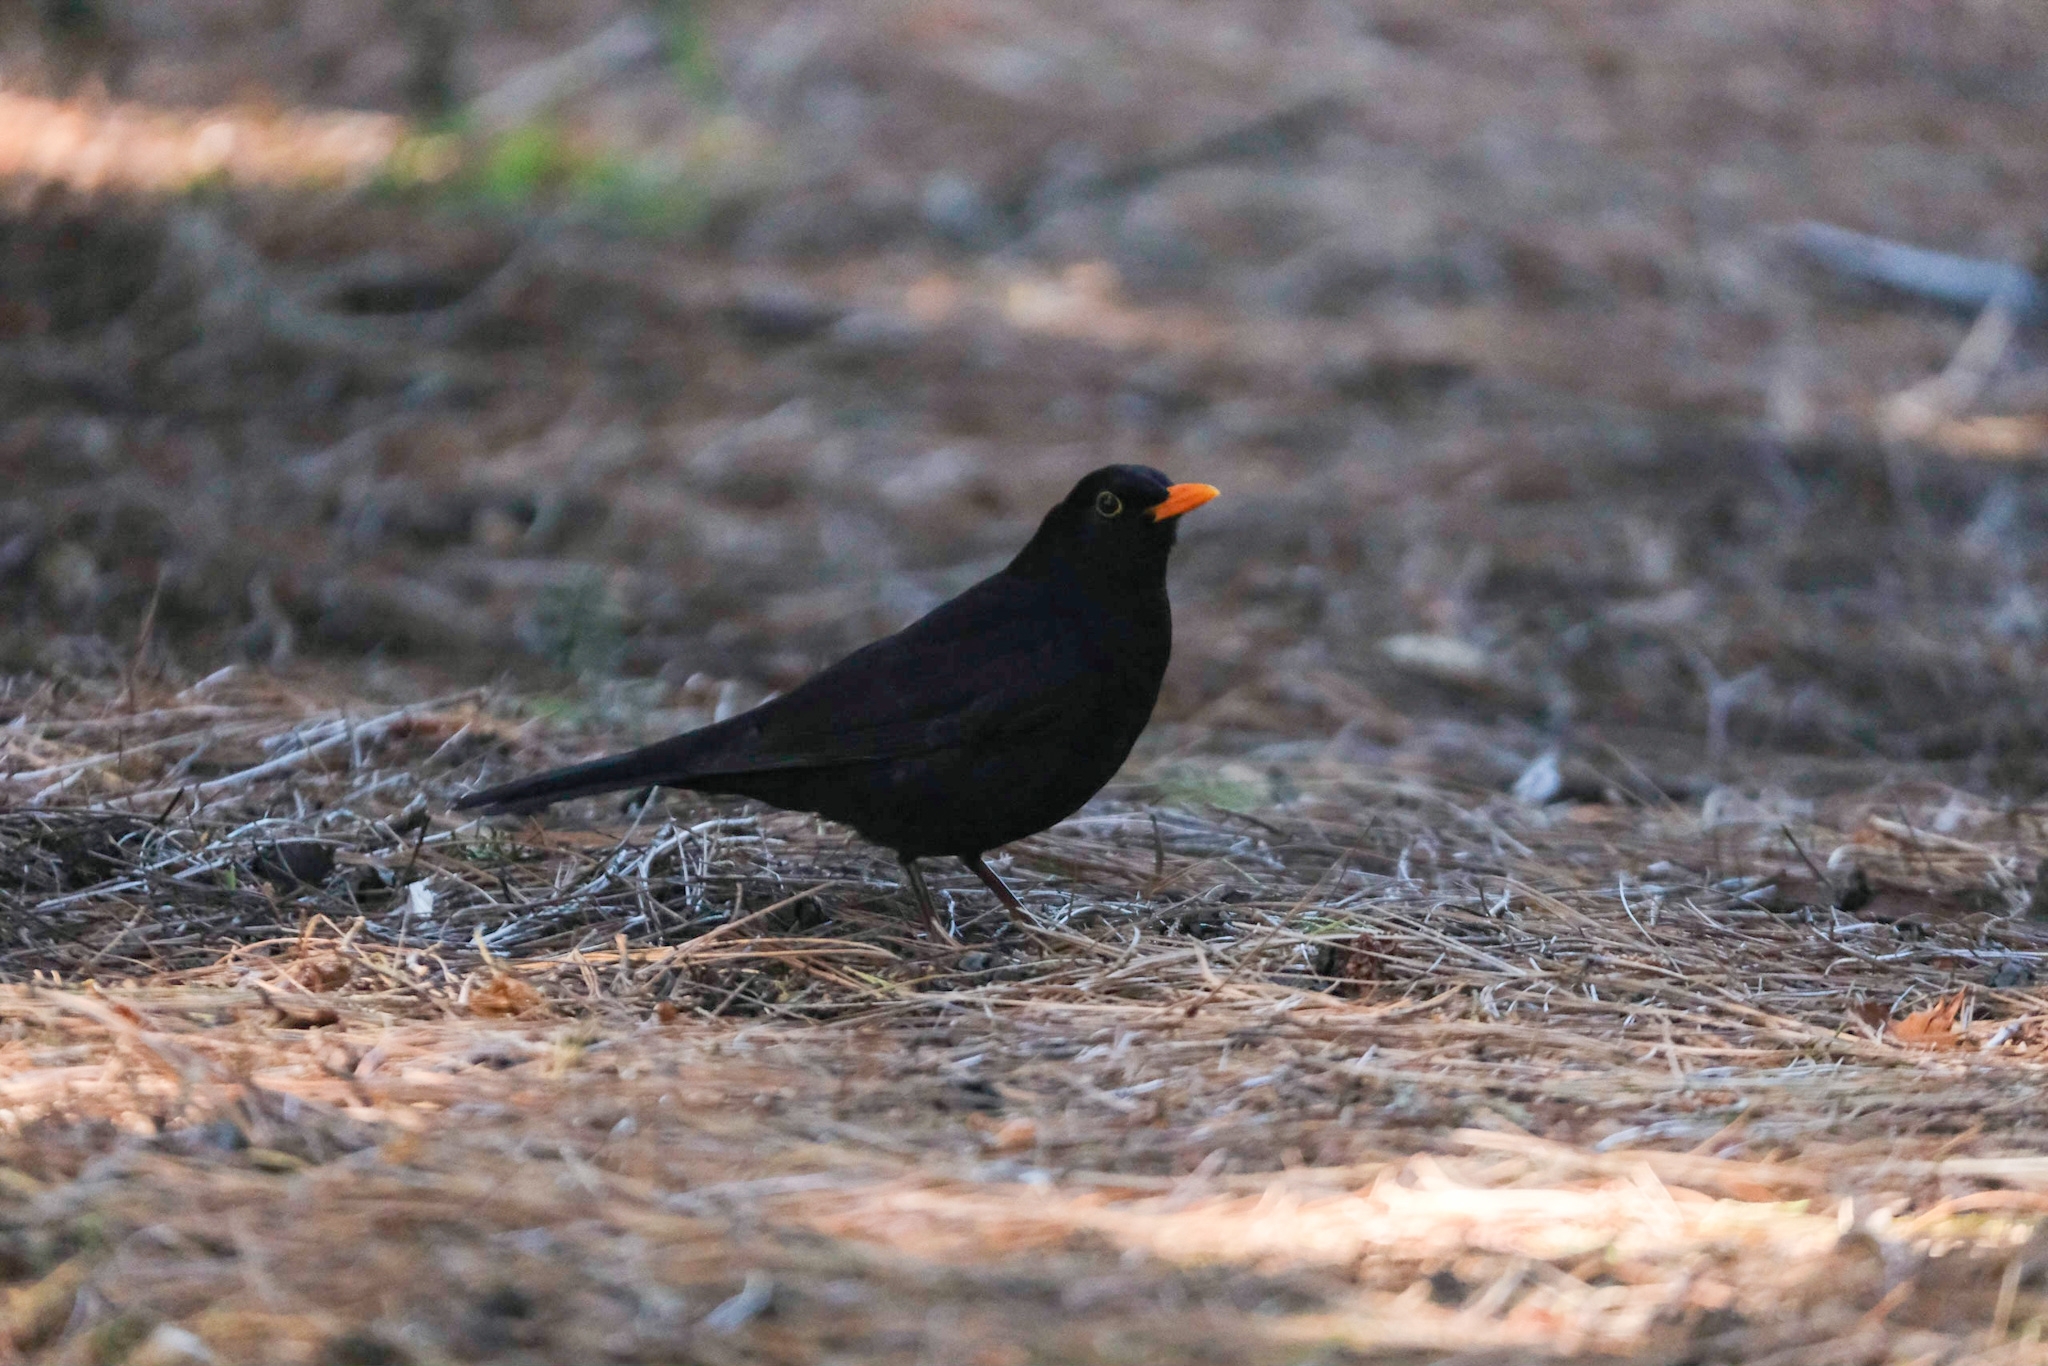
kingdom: Animalia
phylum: Chordata
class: Aves
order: Passeriformes
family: Turdidae
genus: Turdus
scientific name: Turdus merula
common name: Common blackbird
